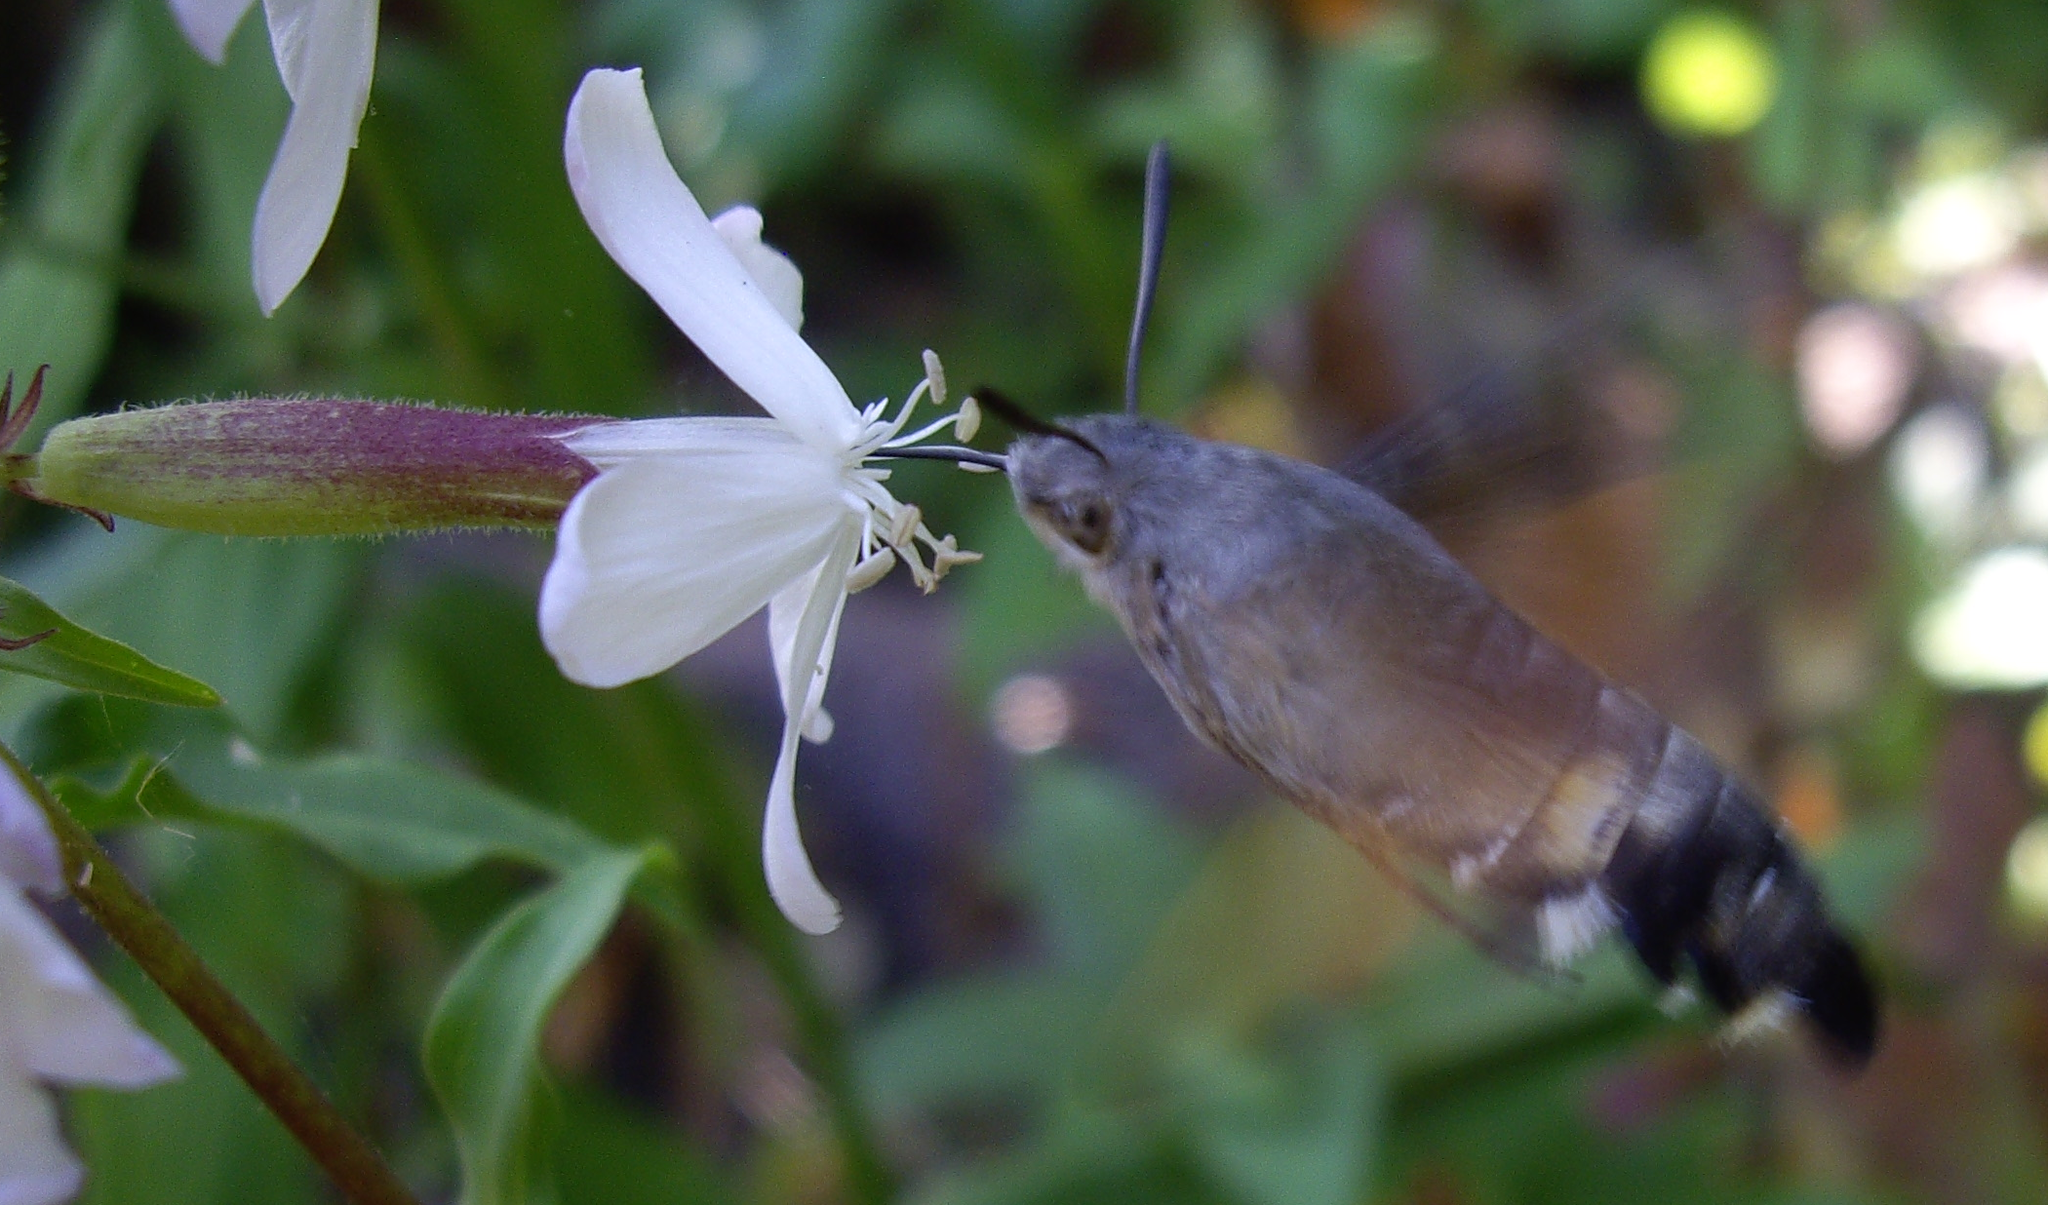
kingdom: Animalia
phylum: Arthropoda
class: Insecta
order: Lepidoptera
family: Sphingidae
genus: Macroglossum
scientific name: Macroglossum stellatarum
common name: Humming-bird hawk-moth
